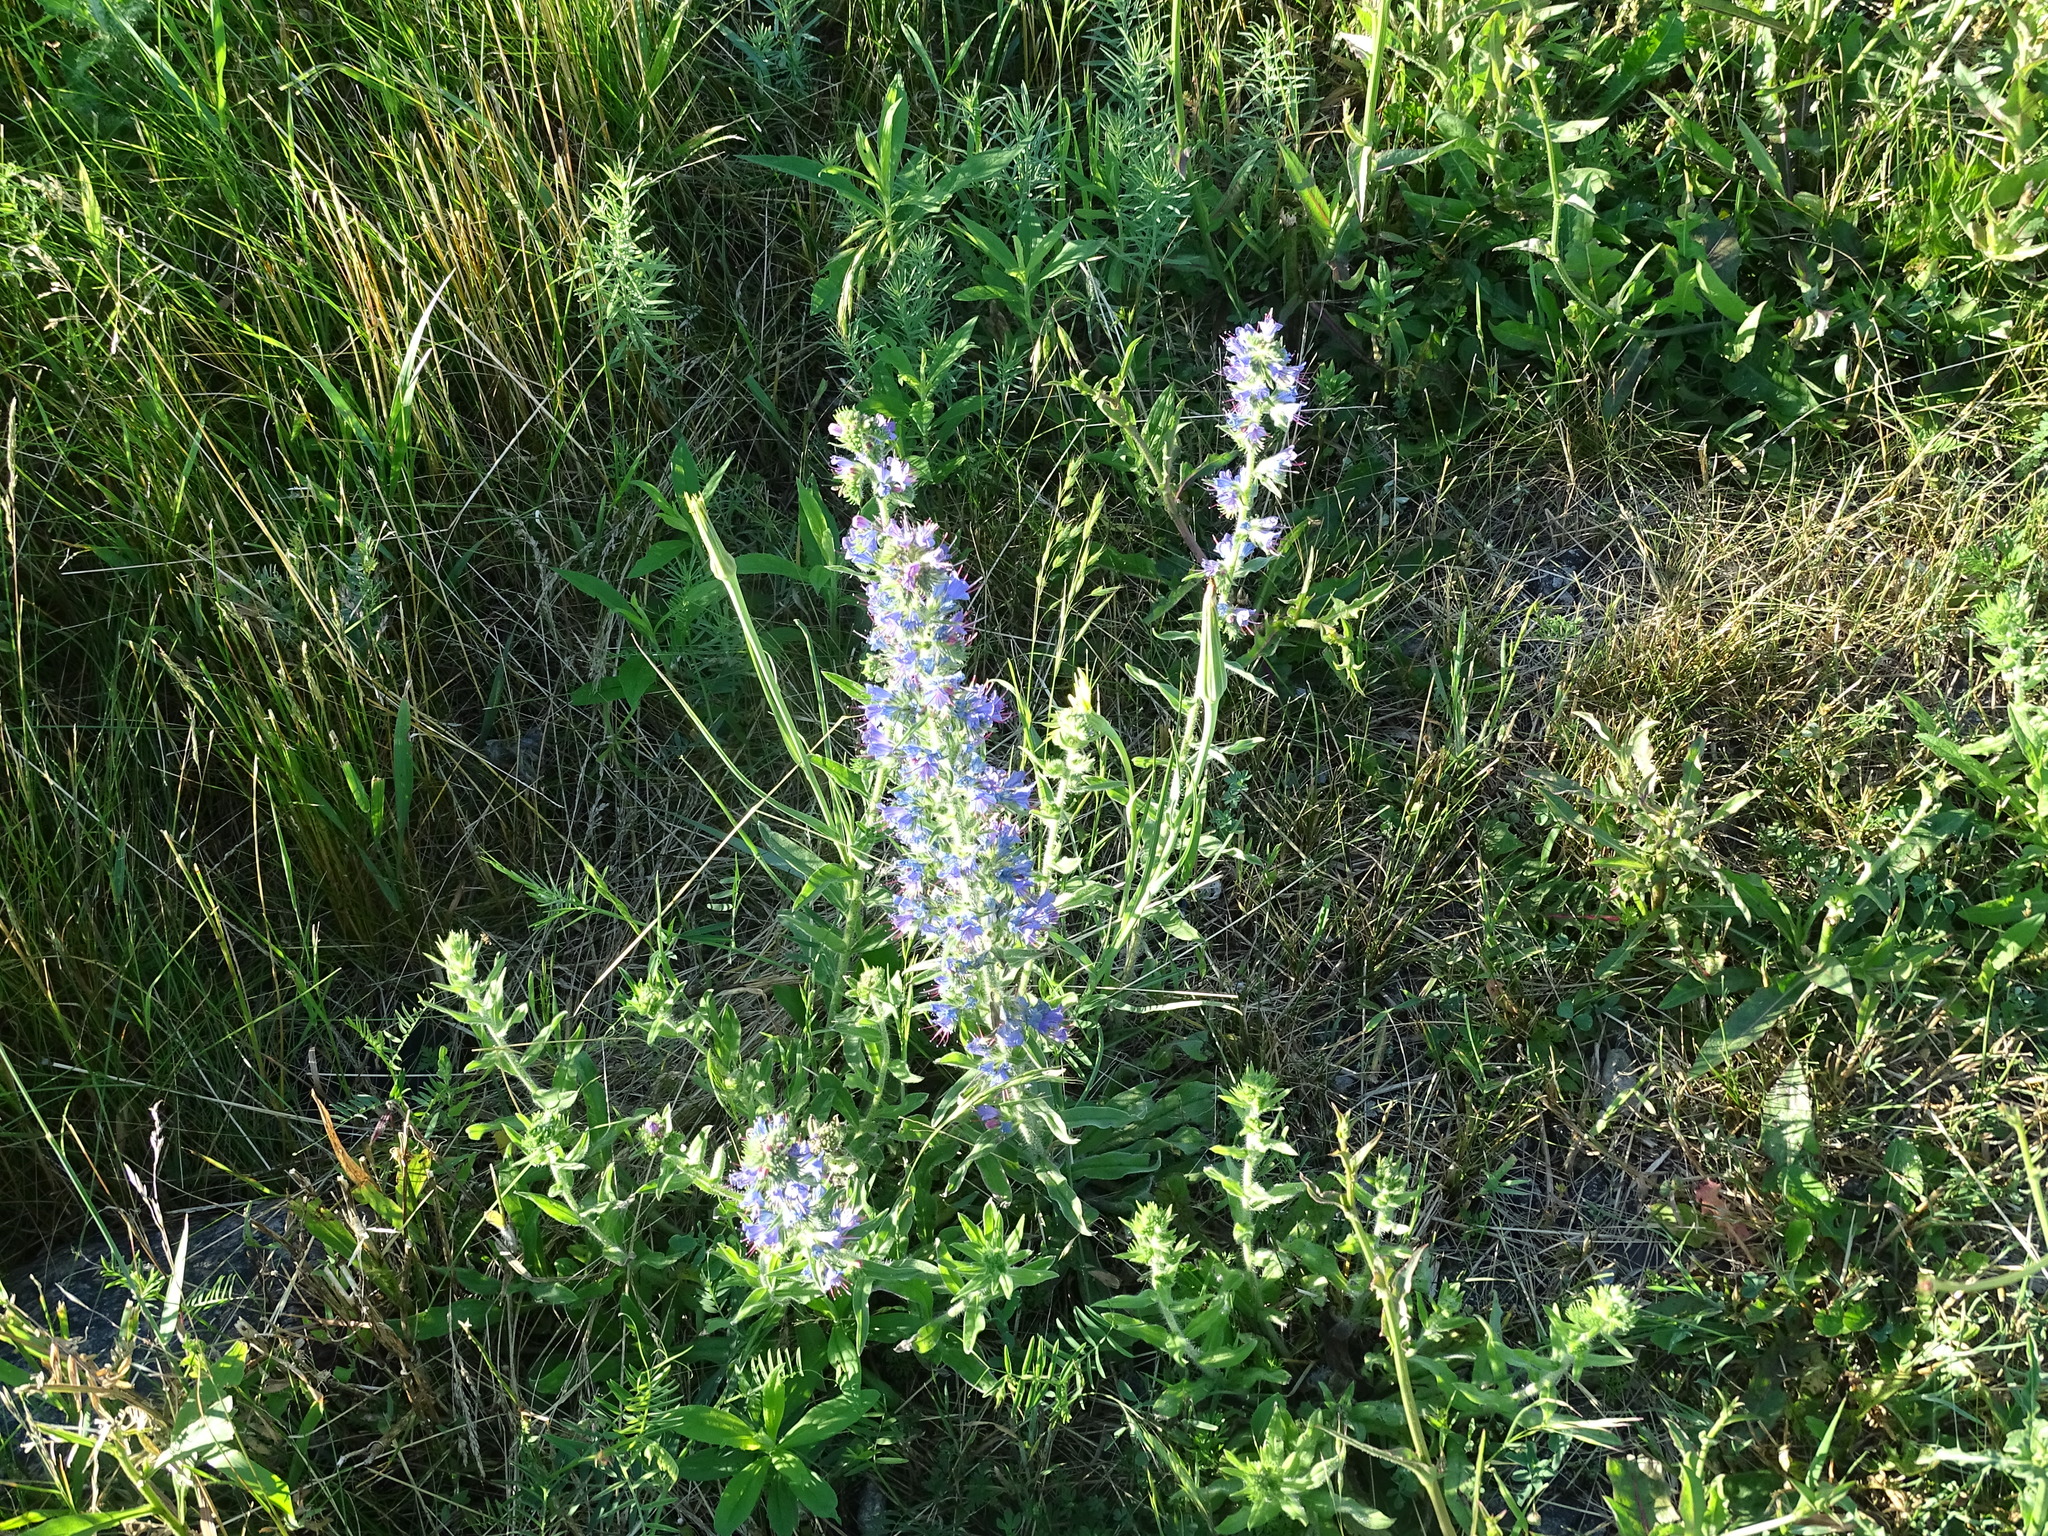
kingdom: Plantae
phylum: Tracheophyta
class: Magnoliopsida
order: Boraginales
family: Boraginaceae
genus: Echium
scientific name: Echium vulgare
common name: Common viper's bugloss
